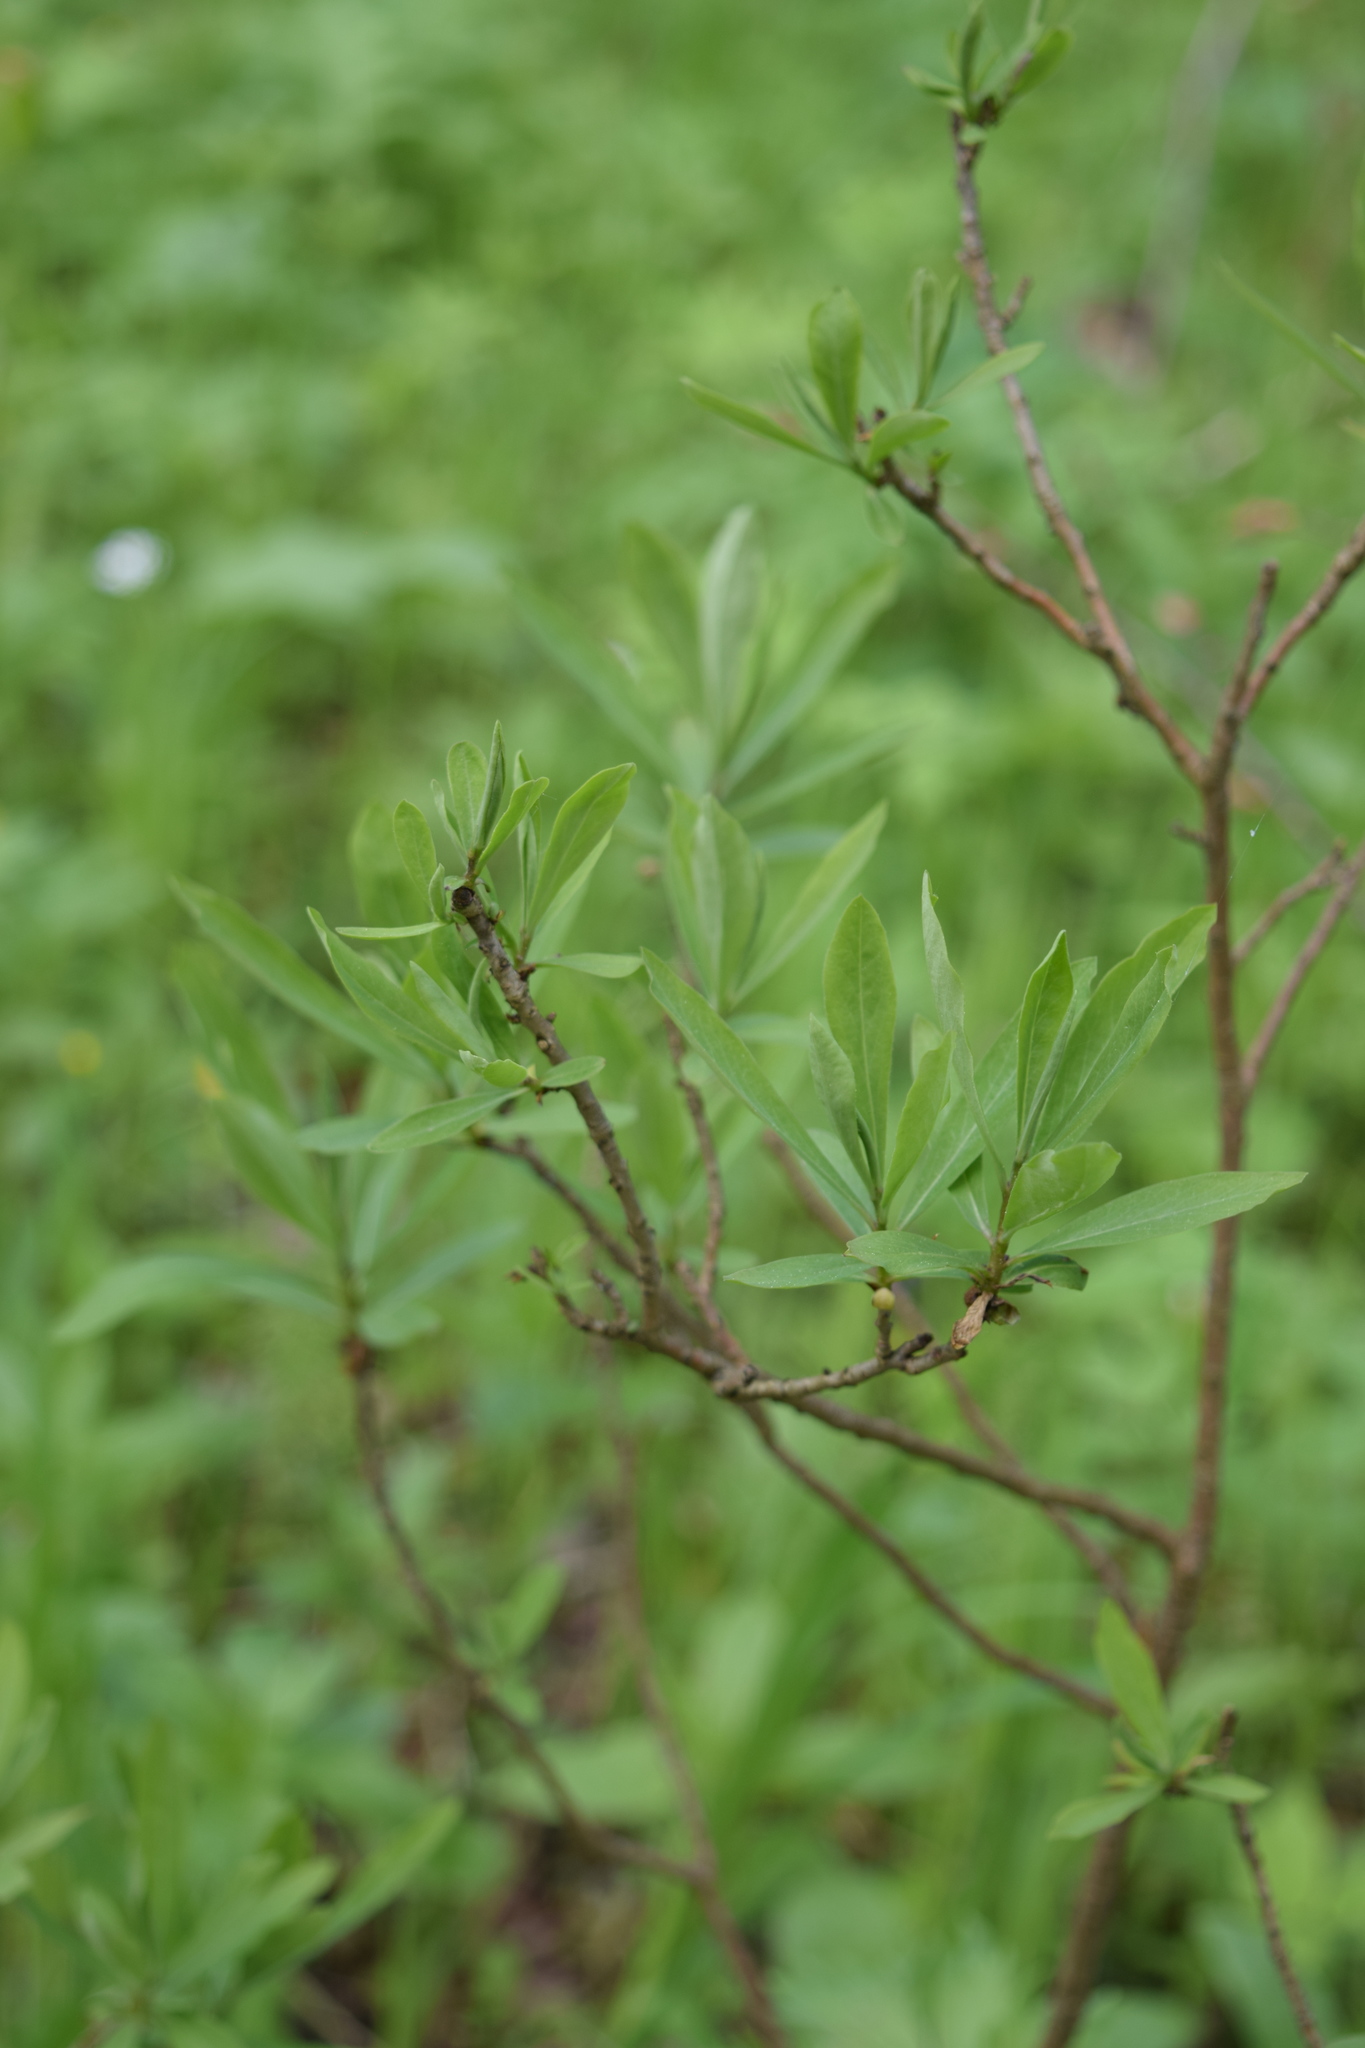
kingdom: Plantae
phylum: Tracheophyta
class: Magnoliopsida
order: Malvales
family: Thymelaeaceae
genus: Daphne
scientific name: Daphne mezereum
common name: Mezereon
